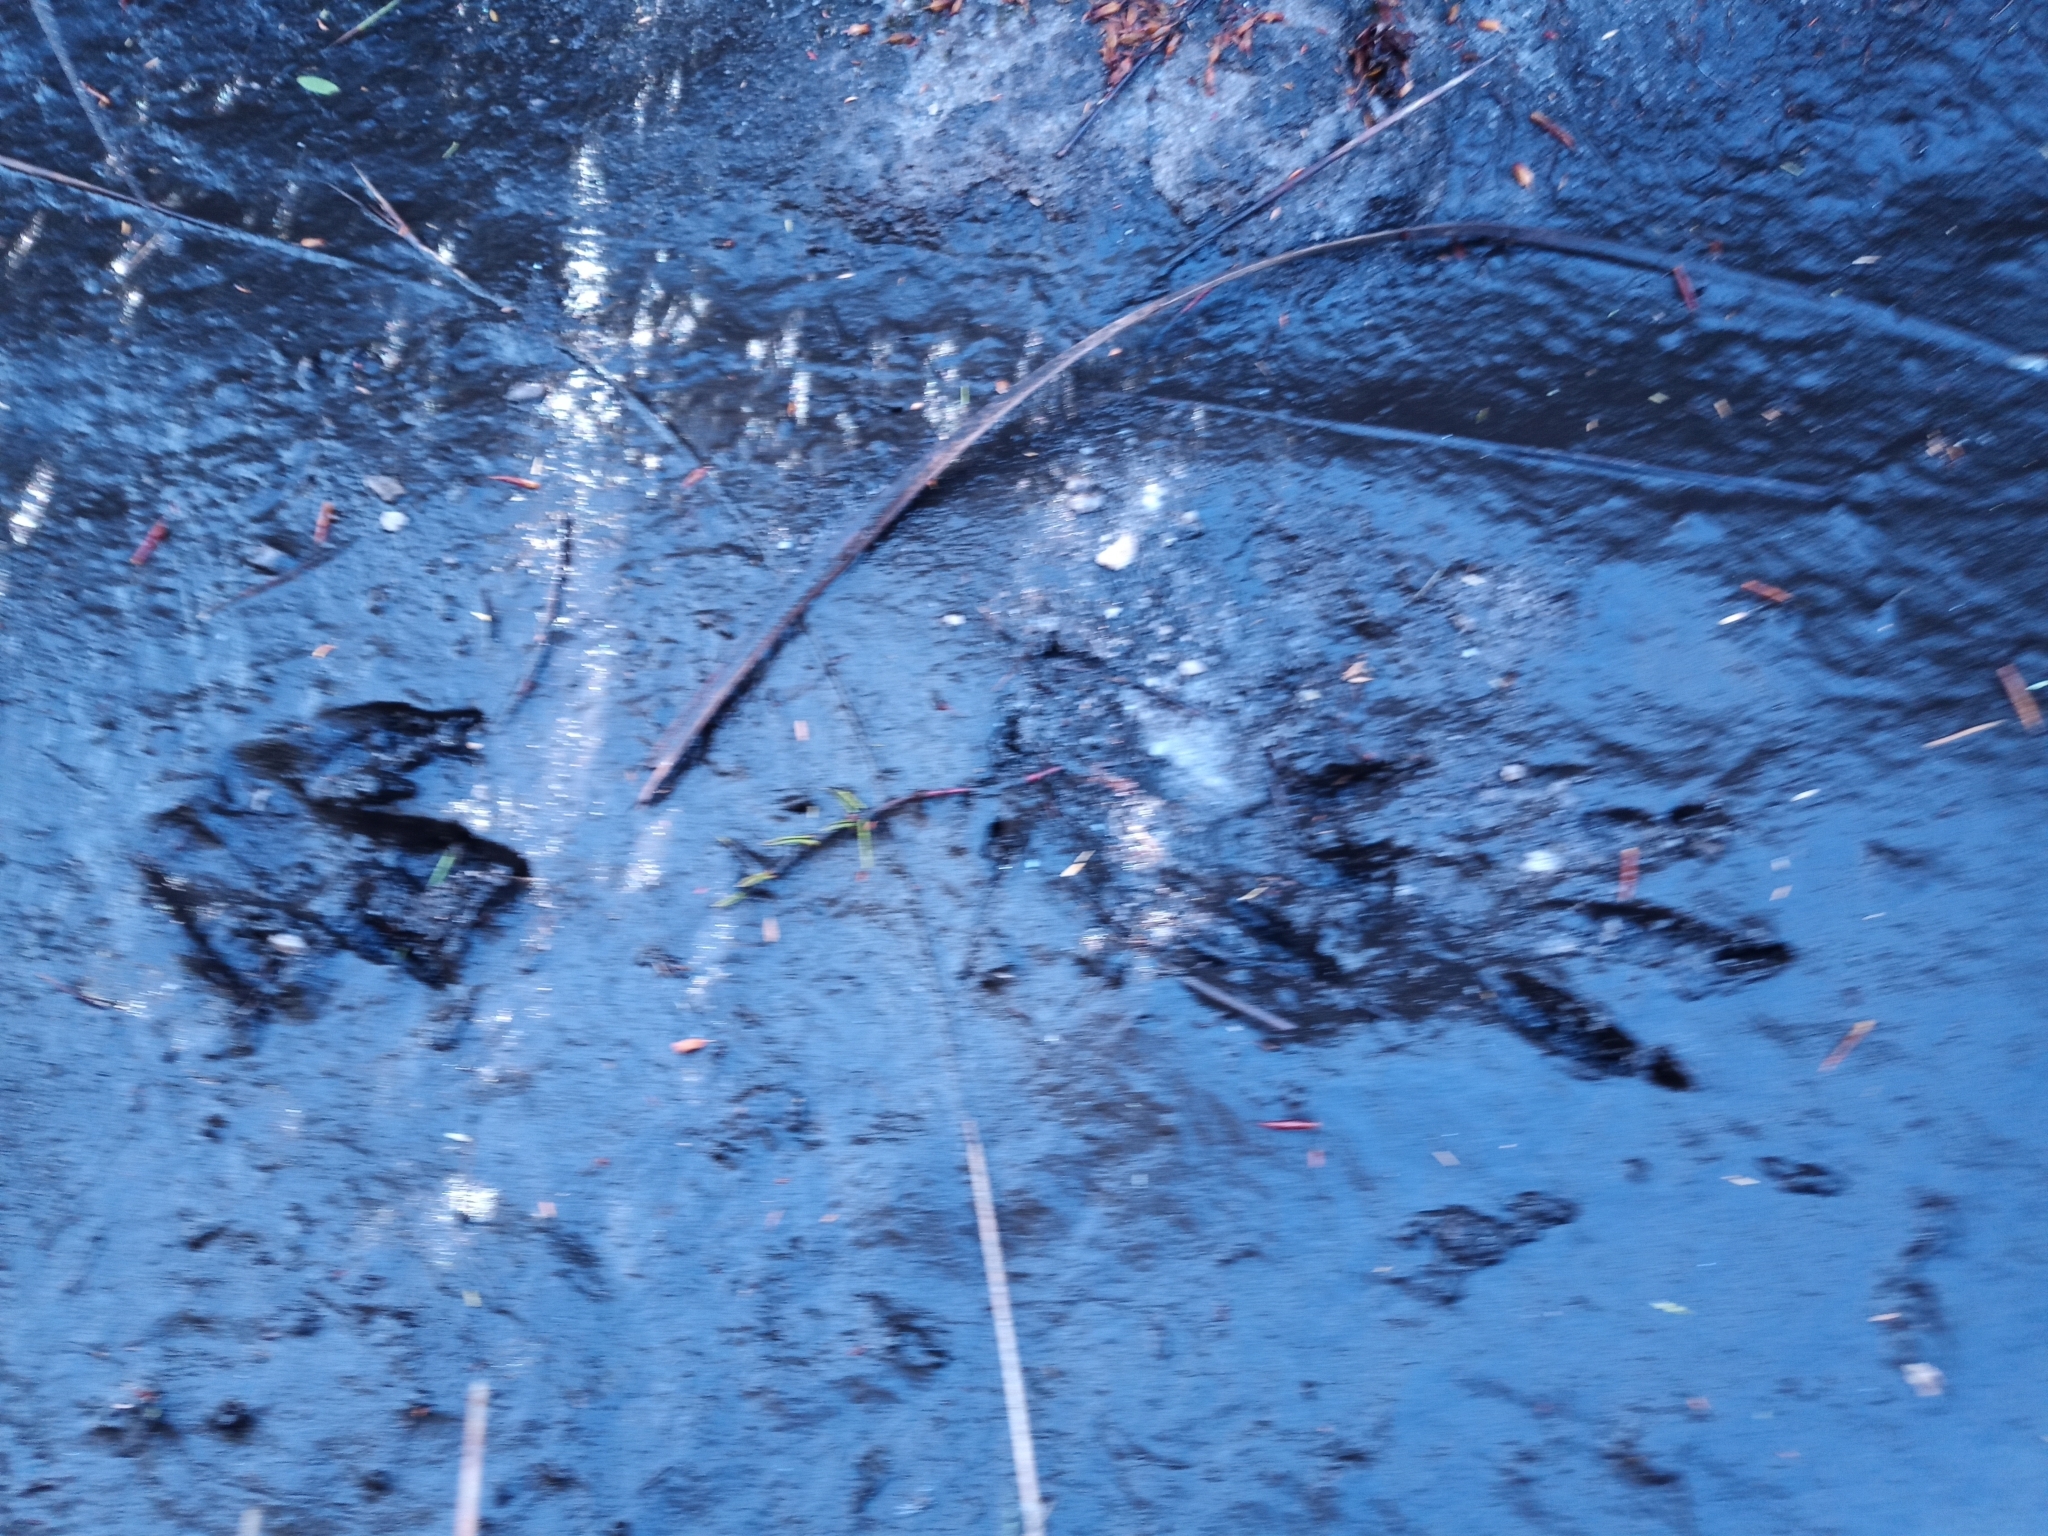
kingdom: Animalia
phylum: Chordata
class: Mammalia
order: Carnivora
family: Herpestidae
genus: Atilax
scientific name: Atilax paludinosus
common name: Marsh mongoose
